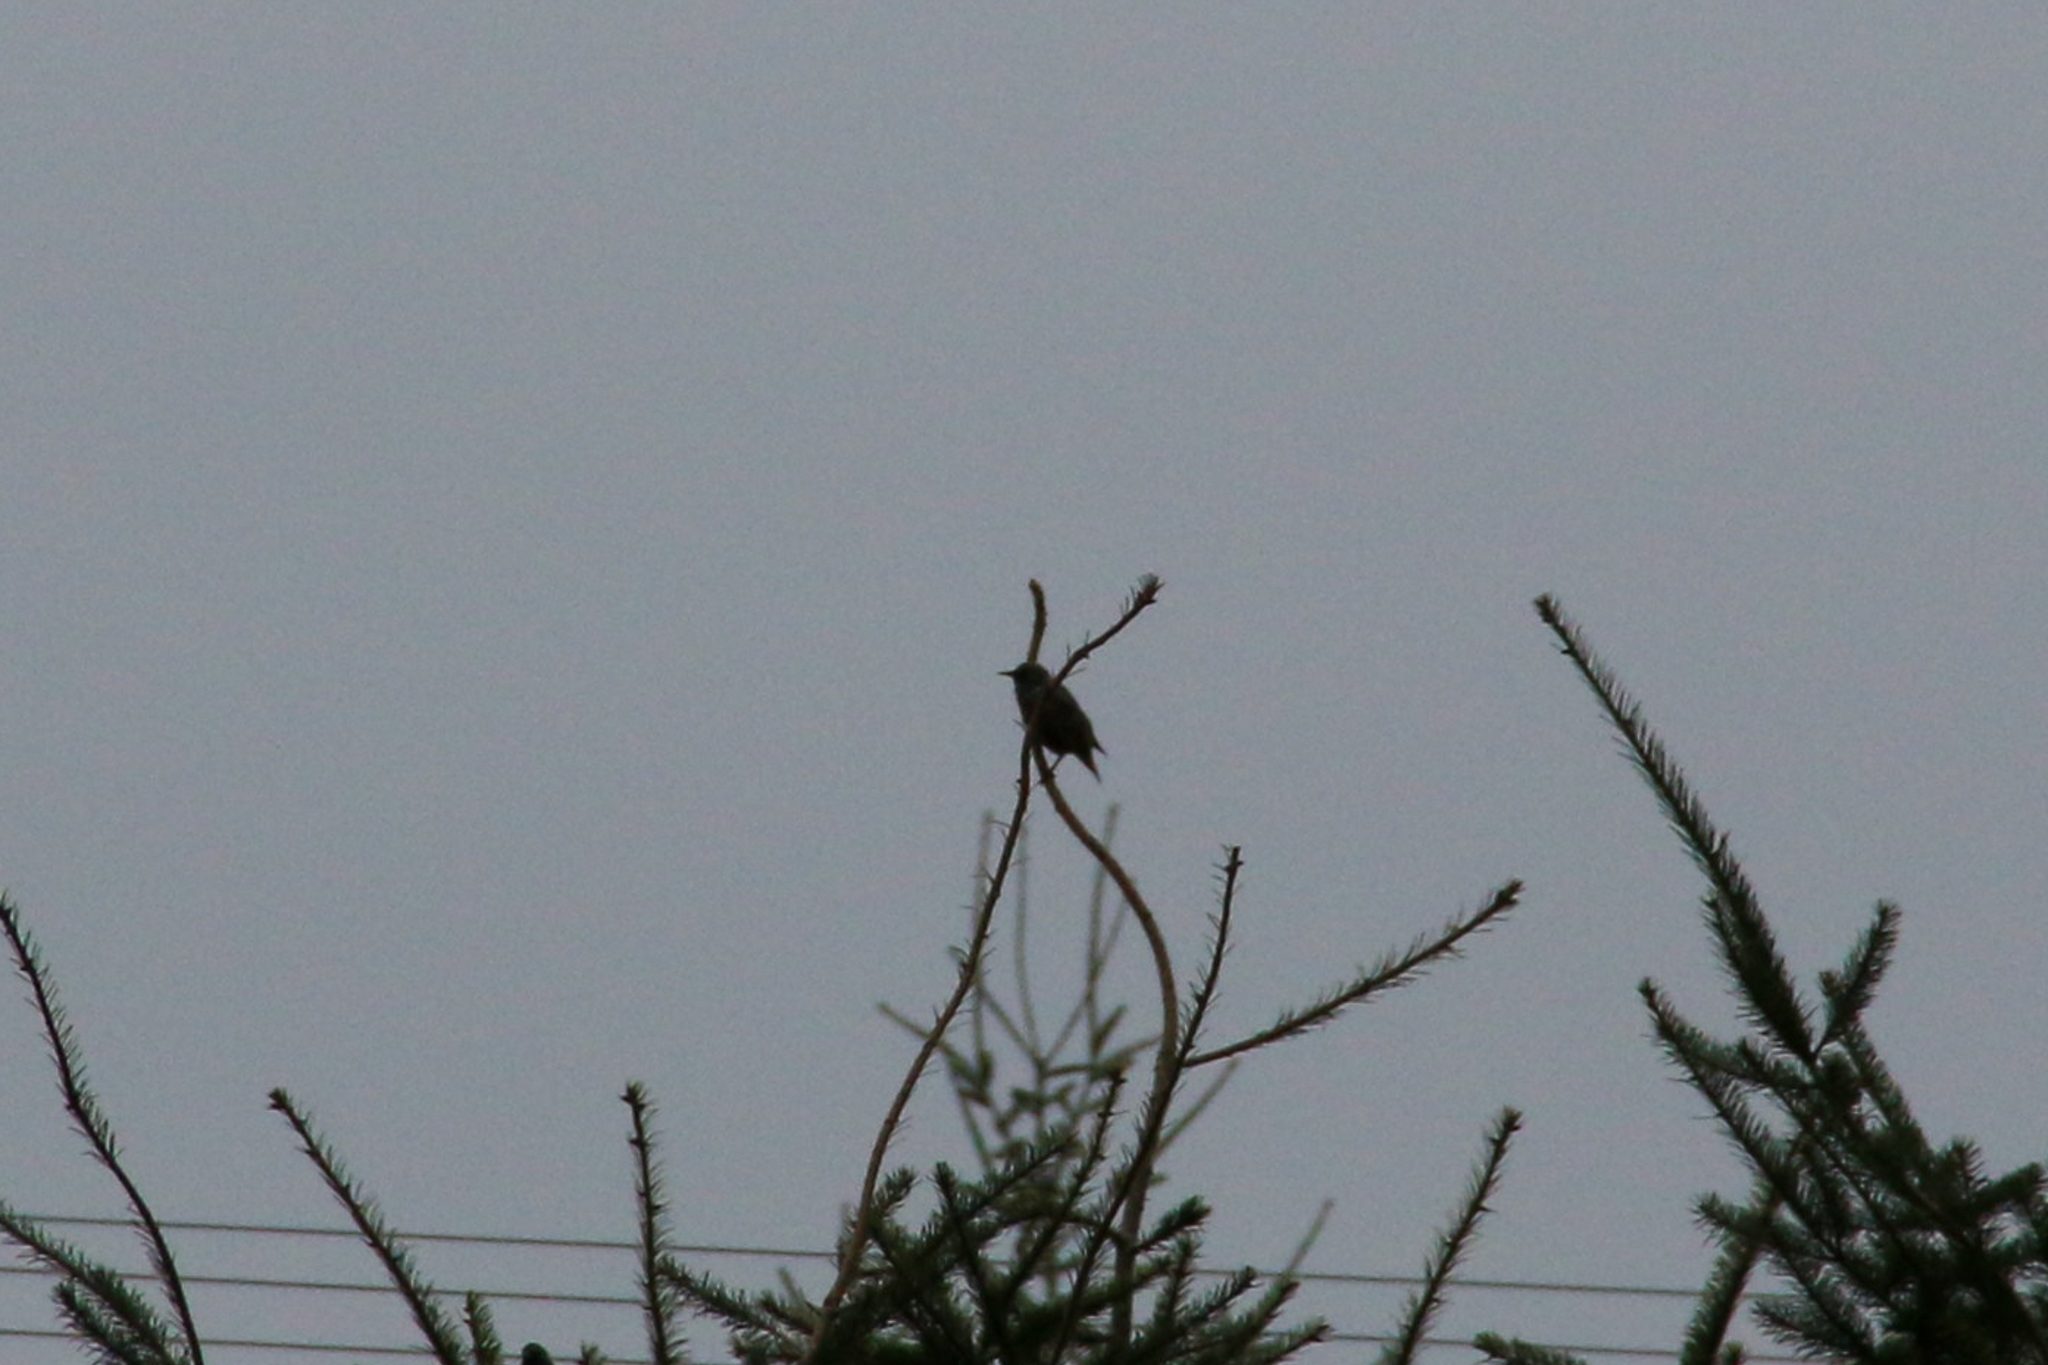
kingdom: Animalia
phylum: Chordata
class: Aves
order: Passeriformes
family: Sturnidae
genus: Sturnus
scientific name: Sturnus vulgaris
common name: Common starling
